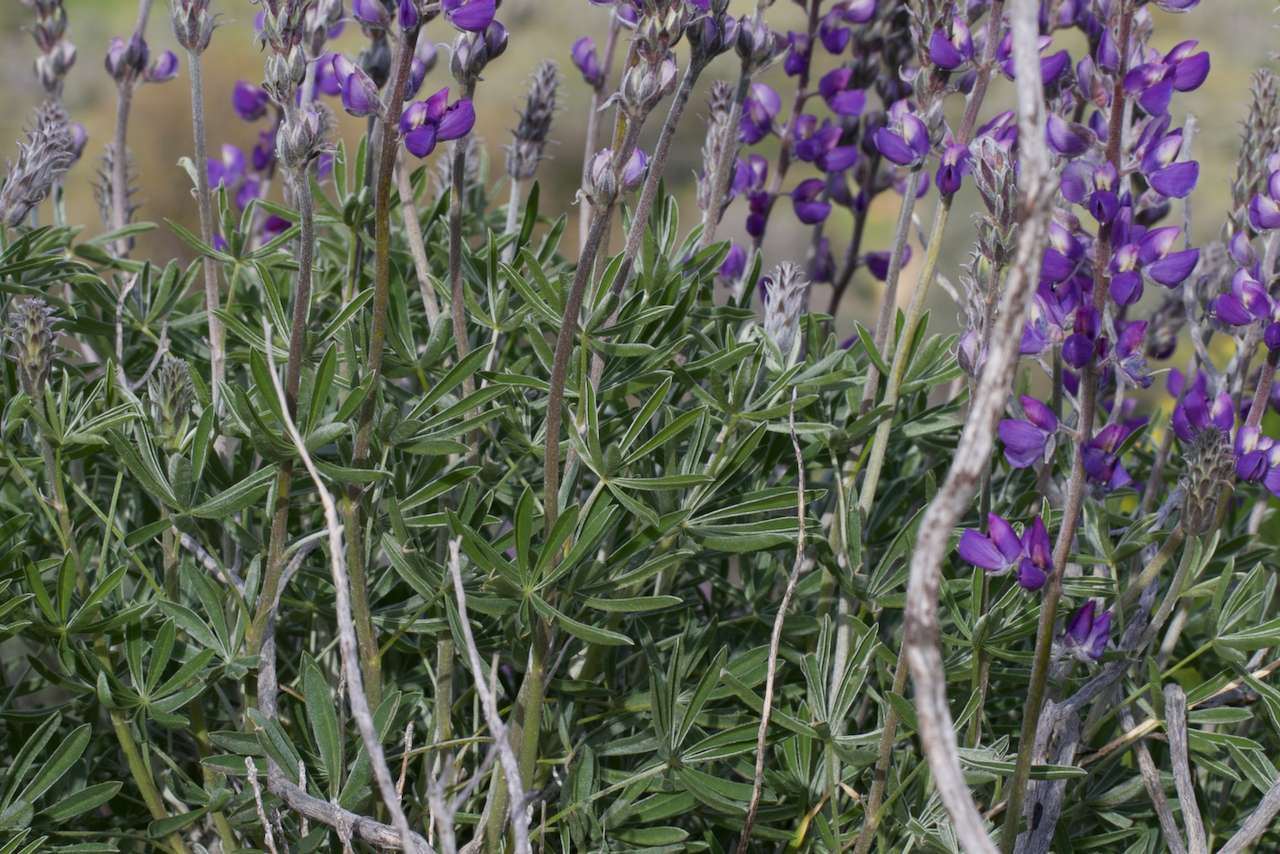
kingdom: Plantae
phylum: Tracheophyta
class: Magnoliopsida
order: Fabales
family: Fabaceae
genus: Lupinus
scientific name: Lupinus albifrons
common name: Foothill lupine
